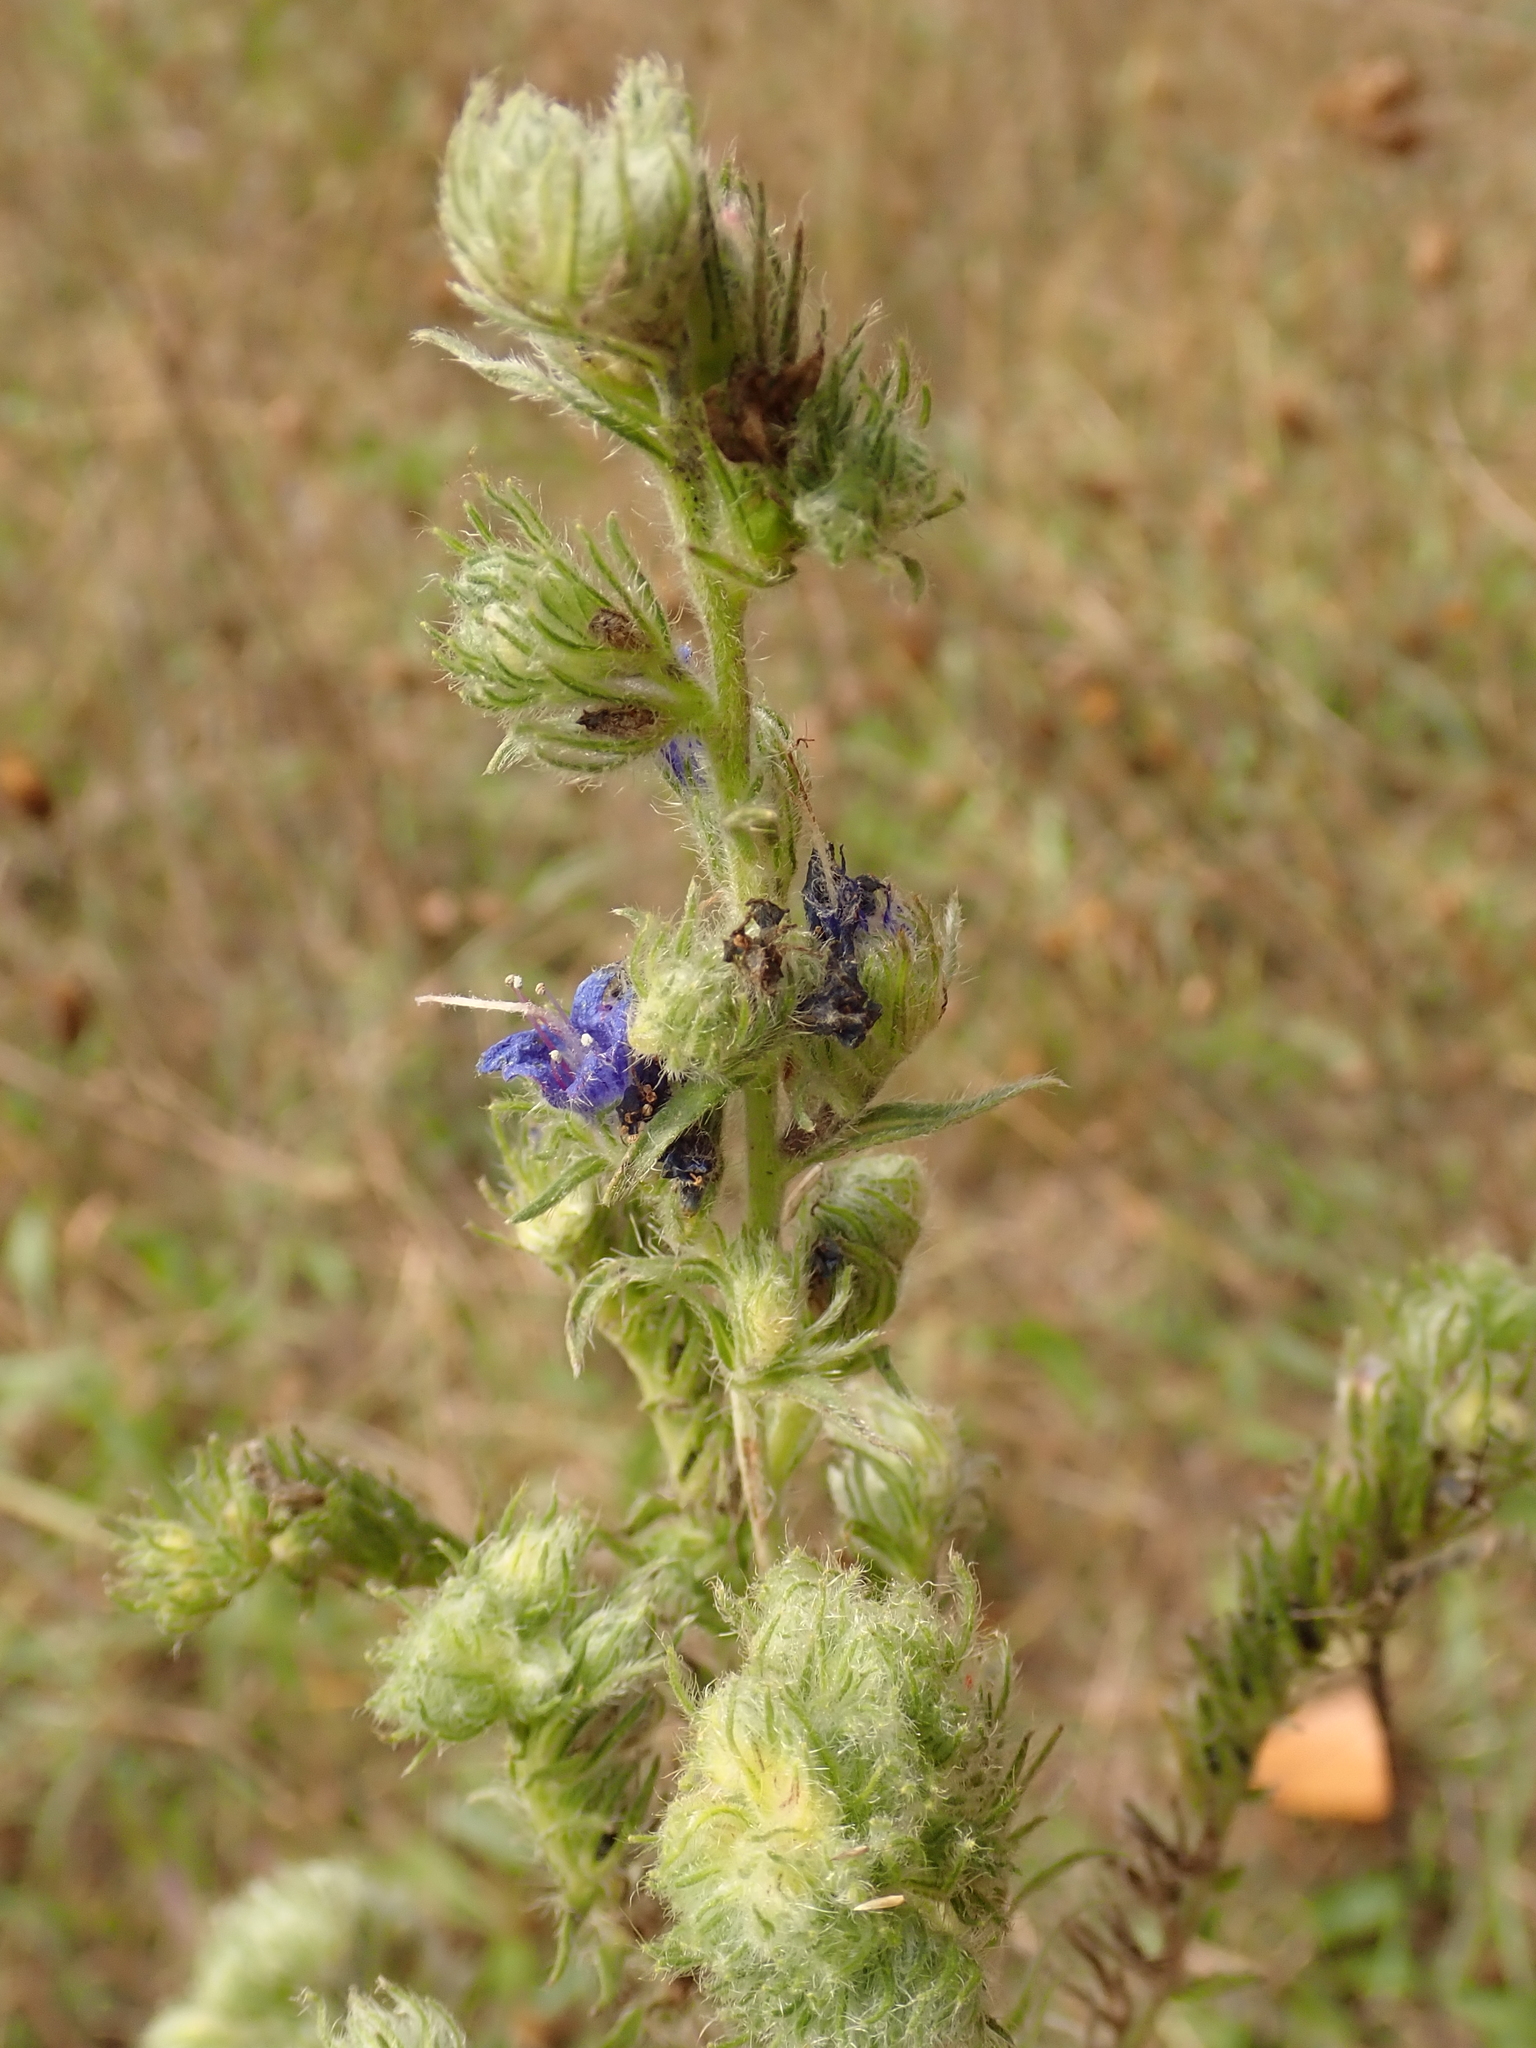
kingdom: Plantae
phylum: Tracheophyta
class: Magnoliopsida
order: Boraginales
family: Boraginaceae
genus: Echium
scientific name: Echium vulgare
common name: Common viper's bugloss
